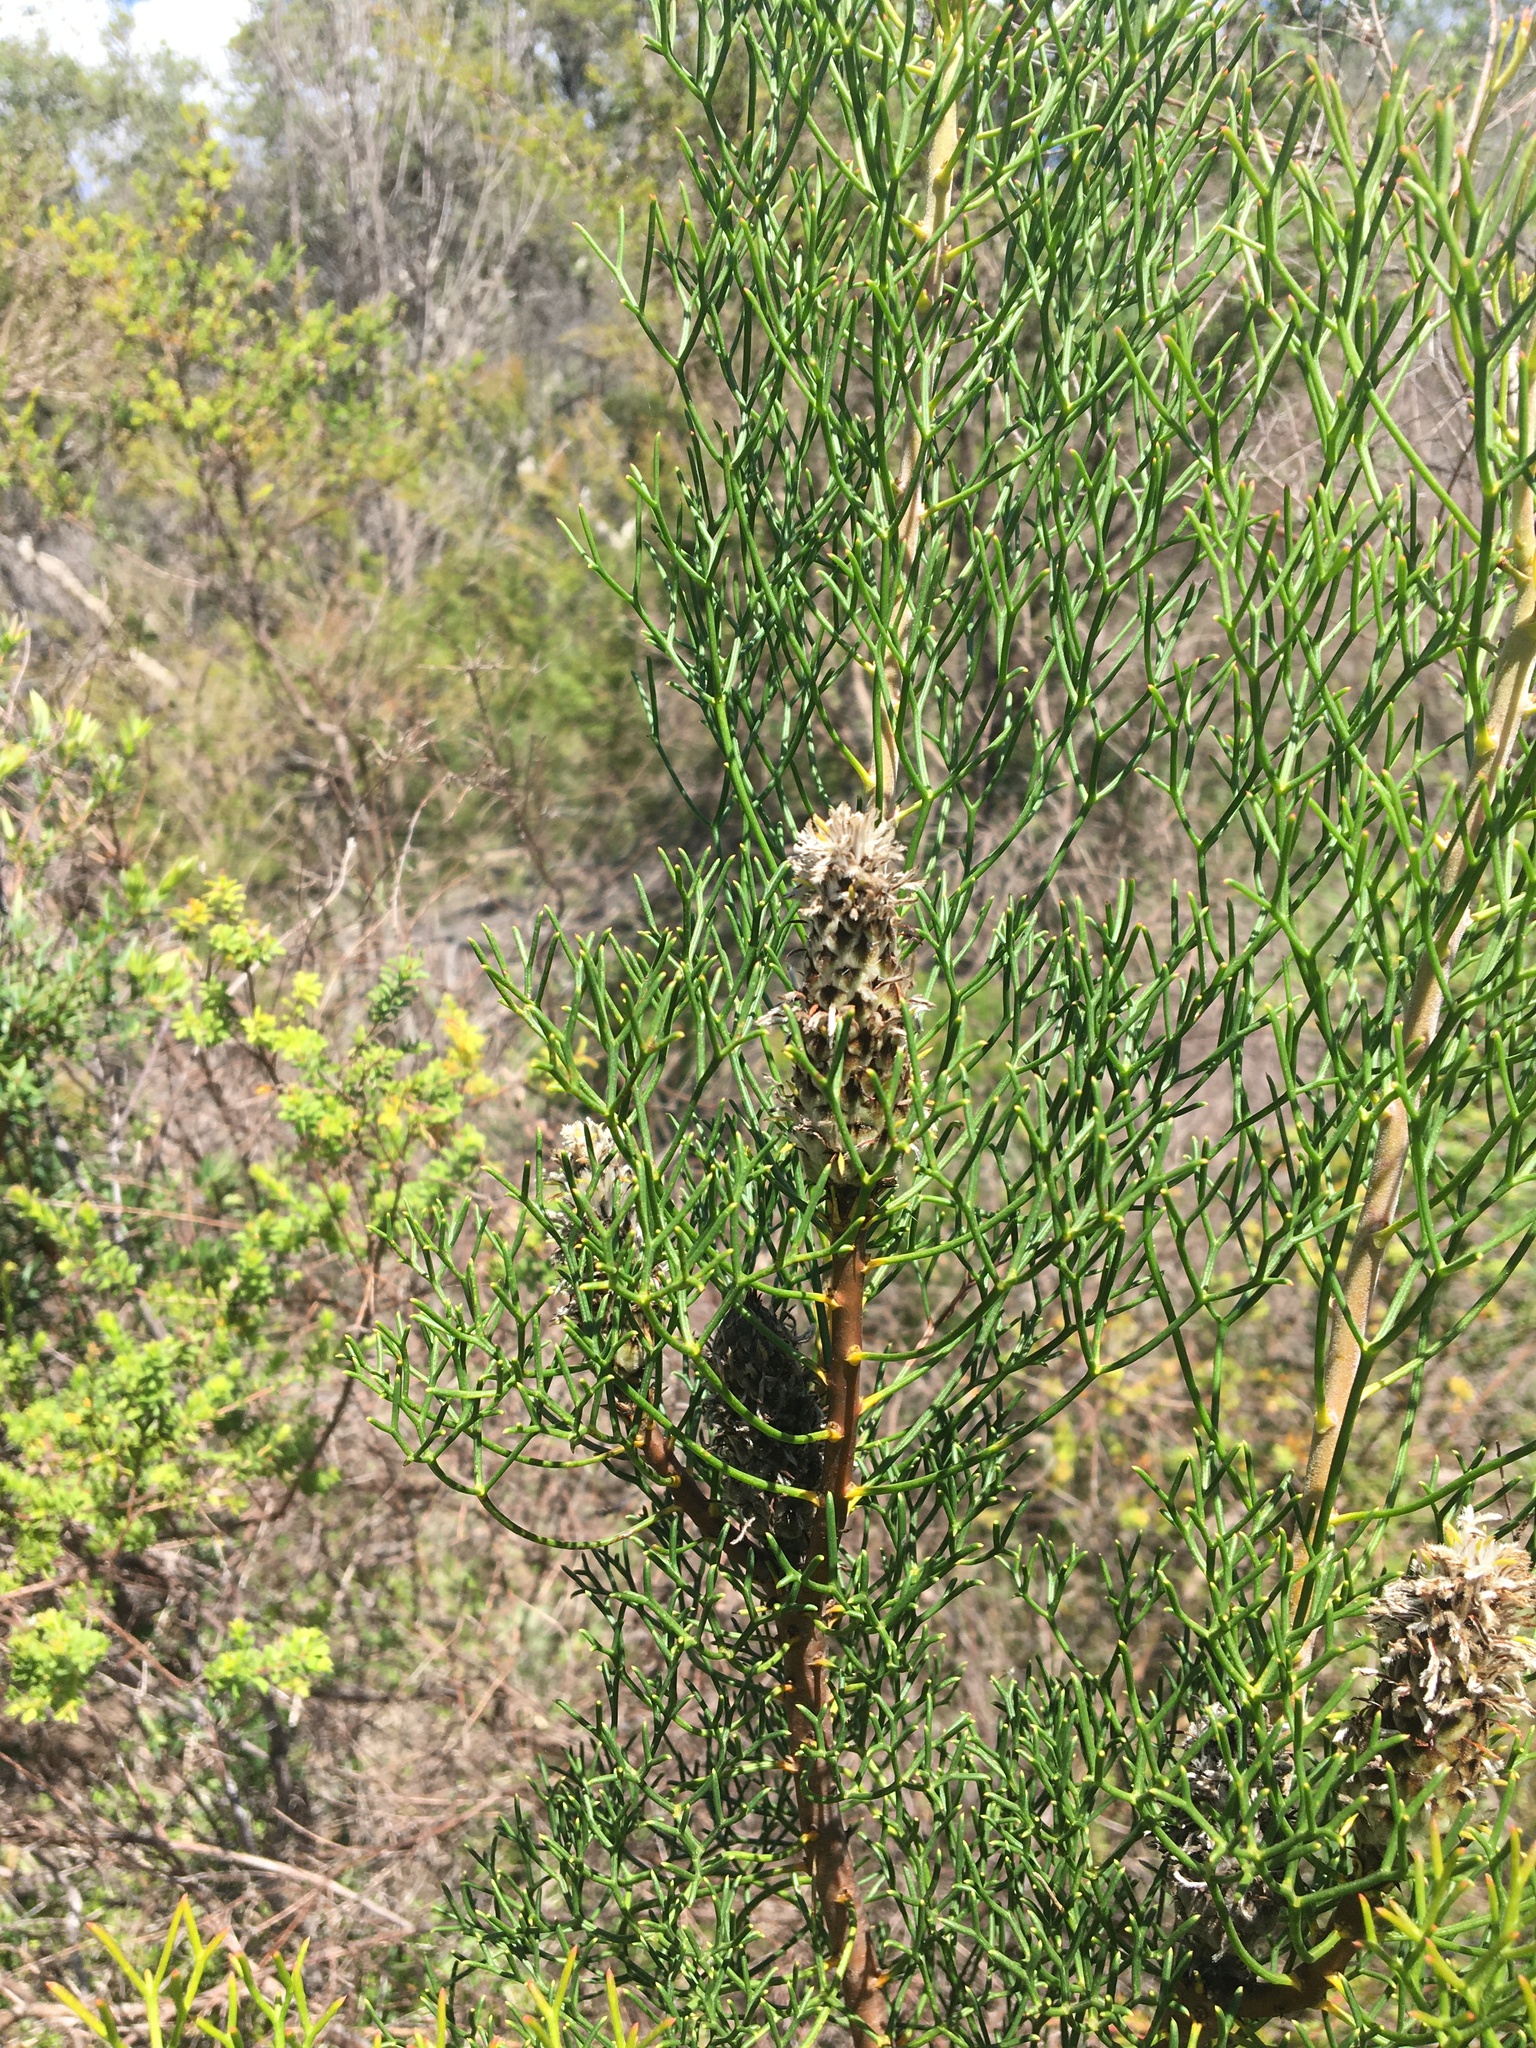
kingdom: Plantae
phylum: Tracheophyta
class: Magnoliopsida
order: Proteales
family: Proteaceae
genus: Petrophile
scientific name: Petrophile pulchella
